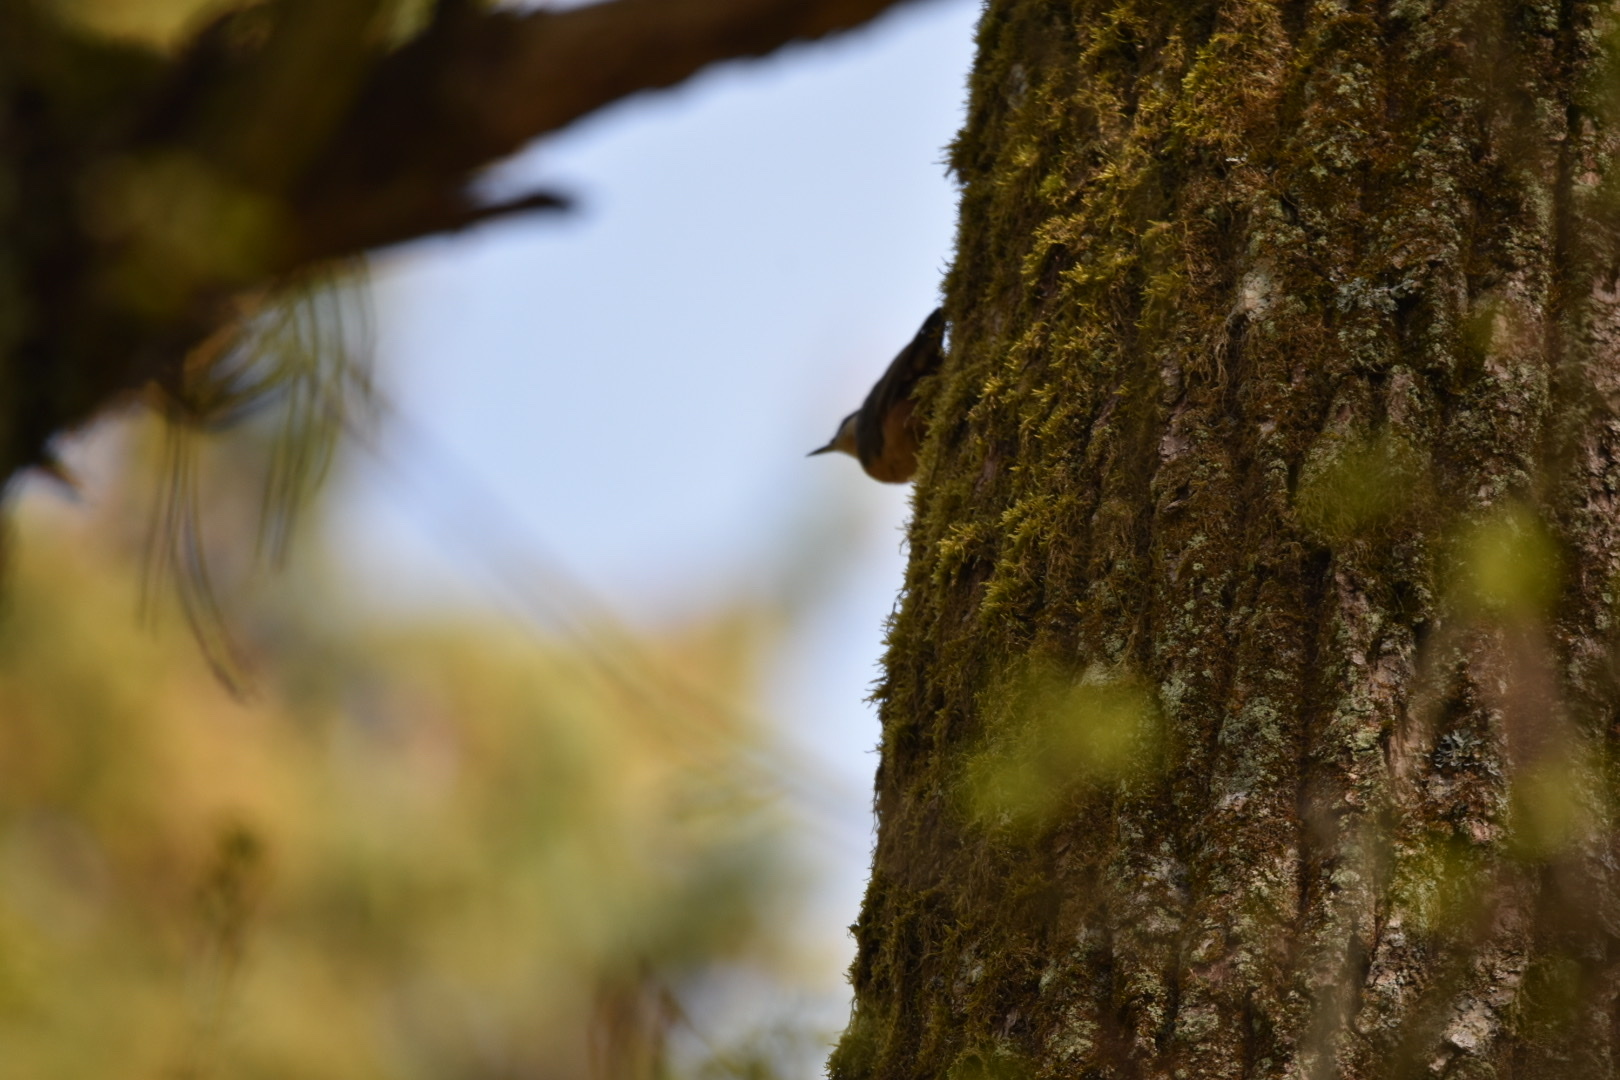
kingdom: Animalia
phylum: Chordata
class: Aves
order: Passeriformes
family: Sittidae
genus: Sitta
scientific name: Sitta europaea
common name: Eurasian nuthatch
